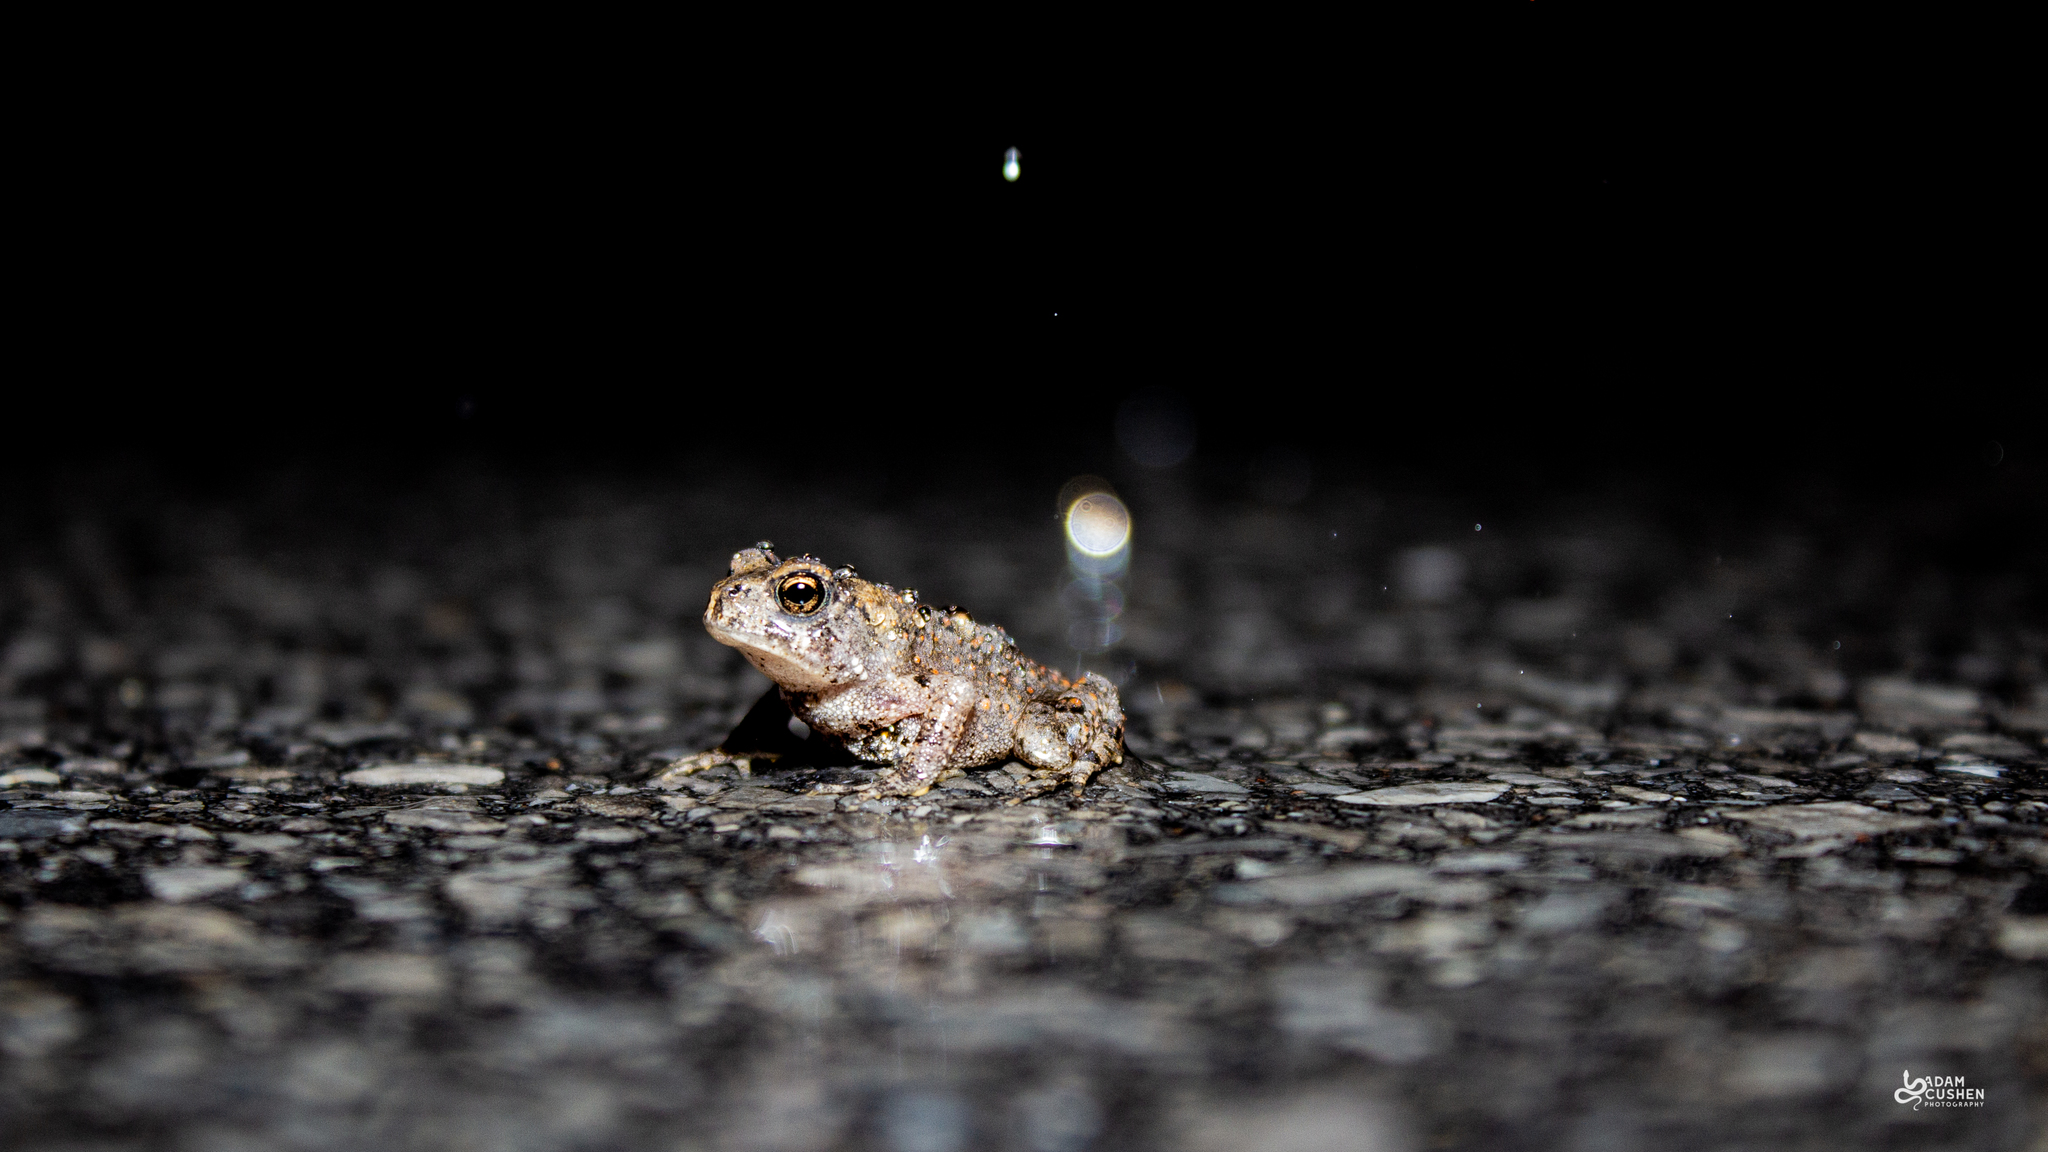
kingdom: Animalia
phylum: Chordata
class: Amphibia
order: Anura
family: Bufonidae
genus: Anaxyrus
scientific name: Anaxyrus americanus
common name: American toad
